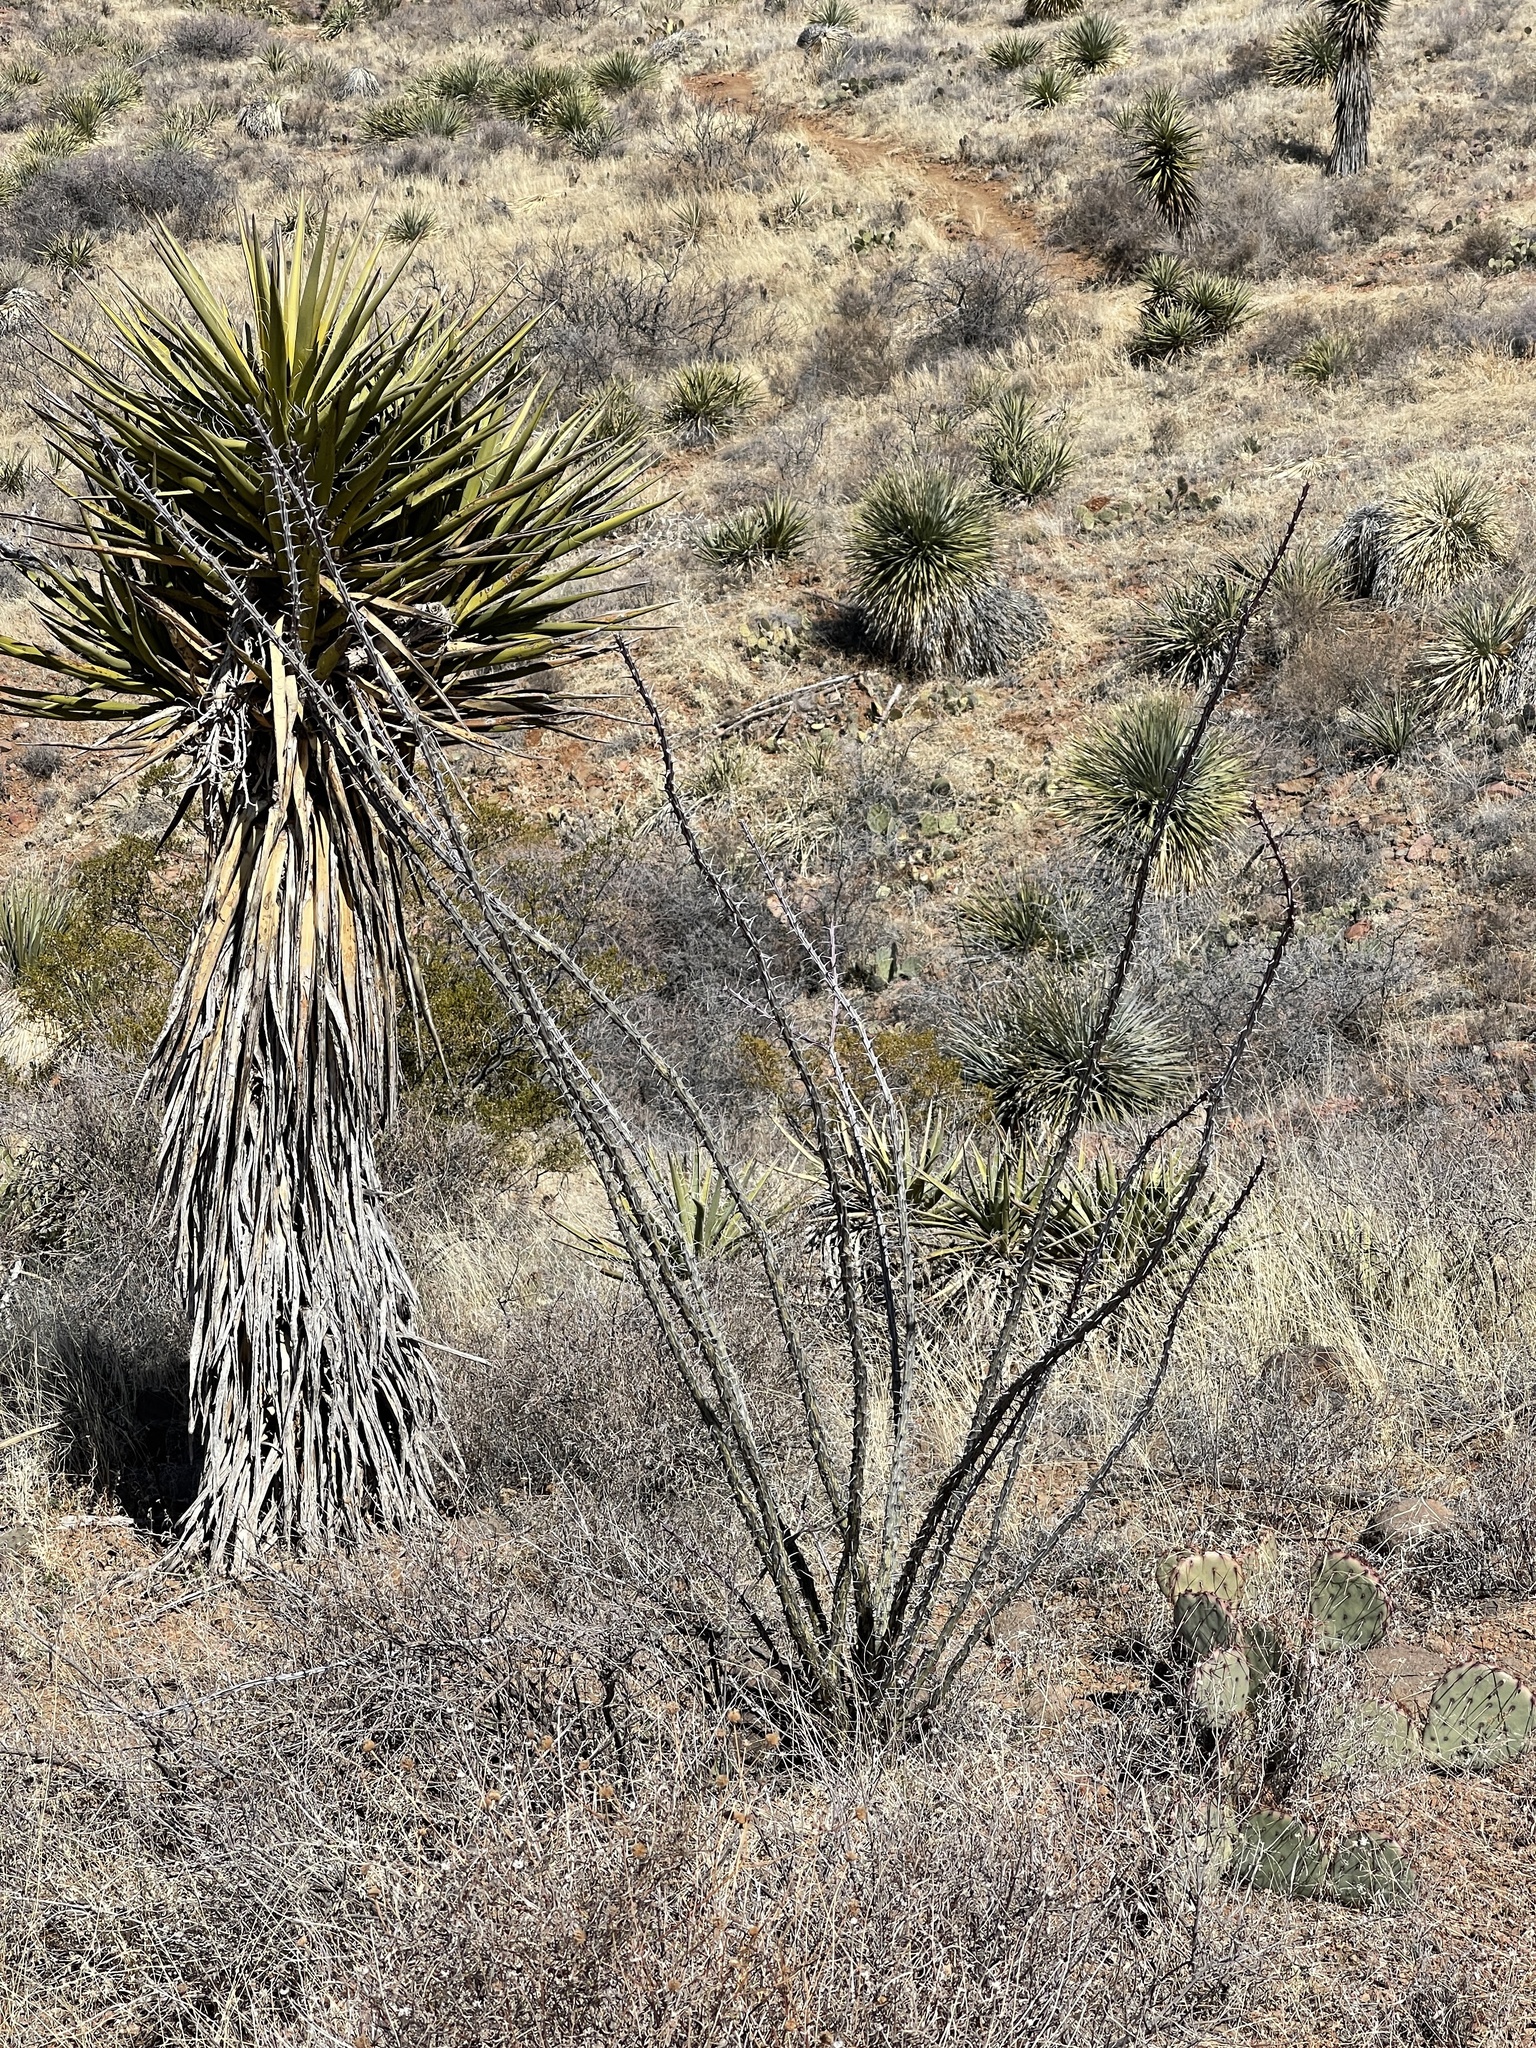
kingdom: Plantae
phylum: Tracheophyta
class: Magnoliopsida
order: Ericales
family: Fouquieriaceae
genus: Fouquieria
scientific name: Fouquieria splendens
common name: Vine-cactus
